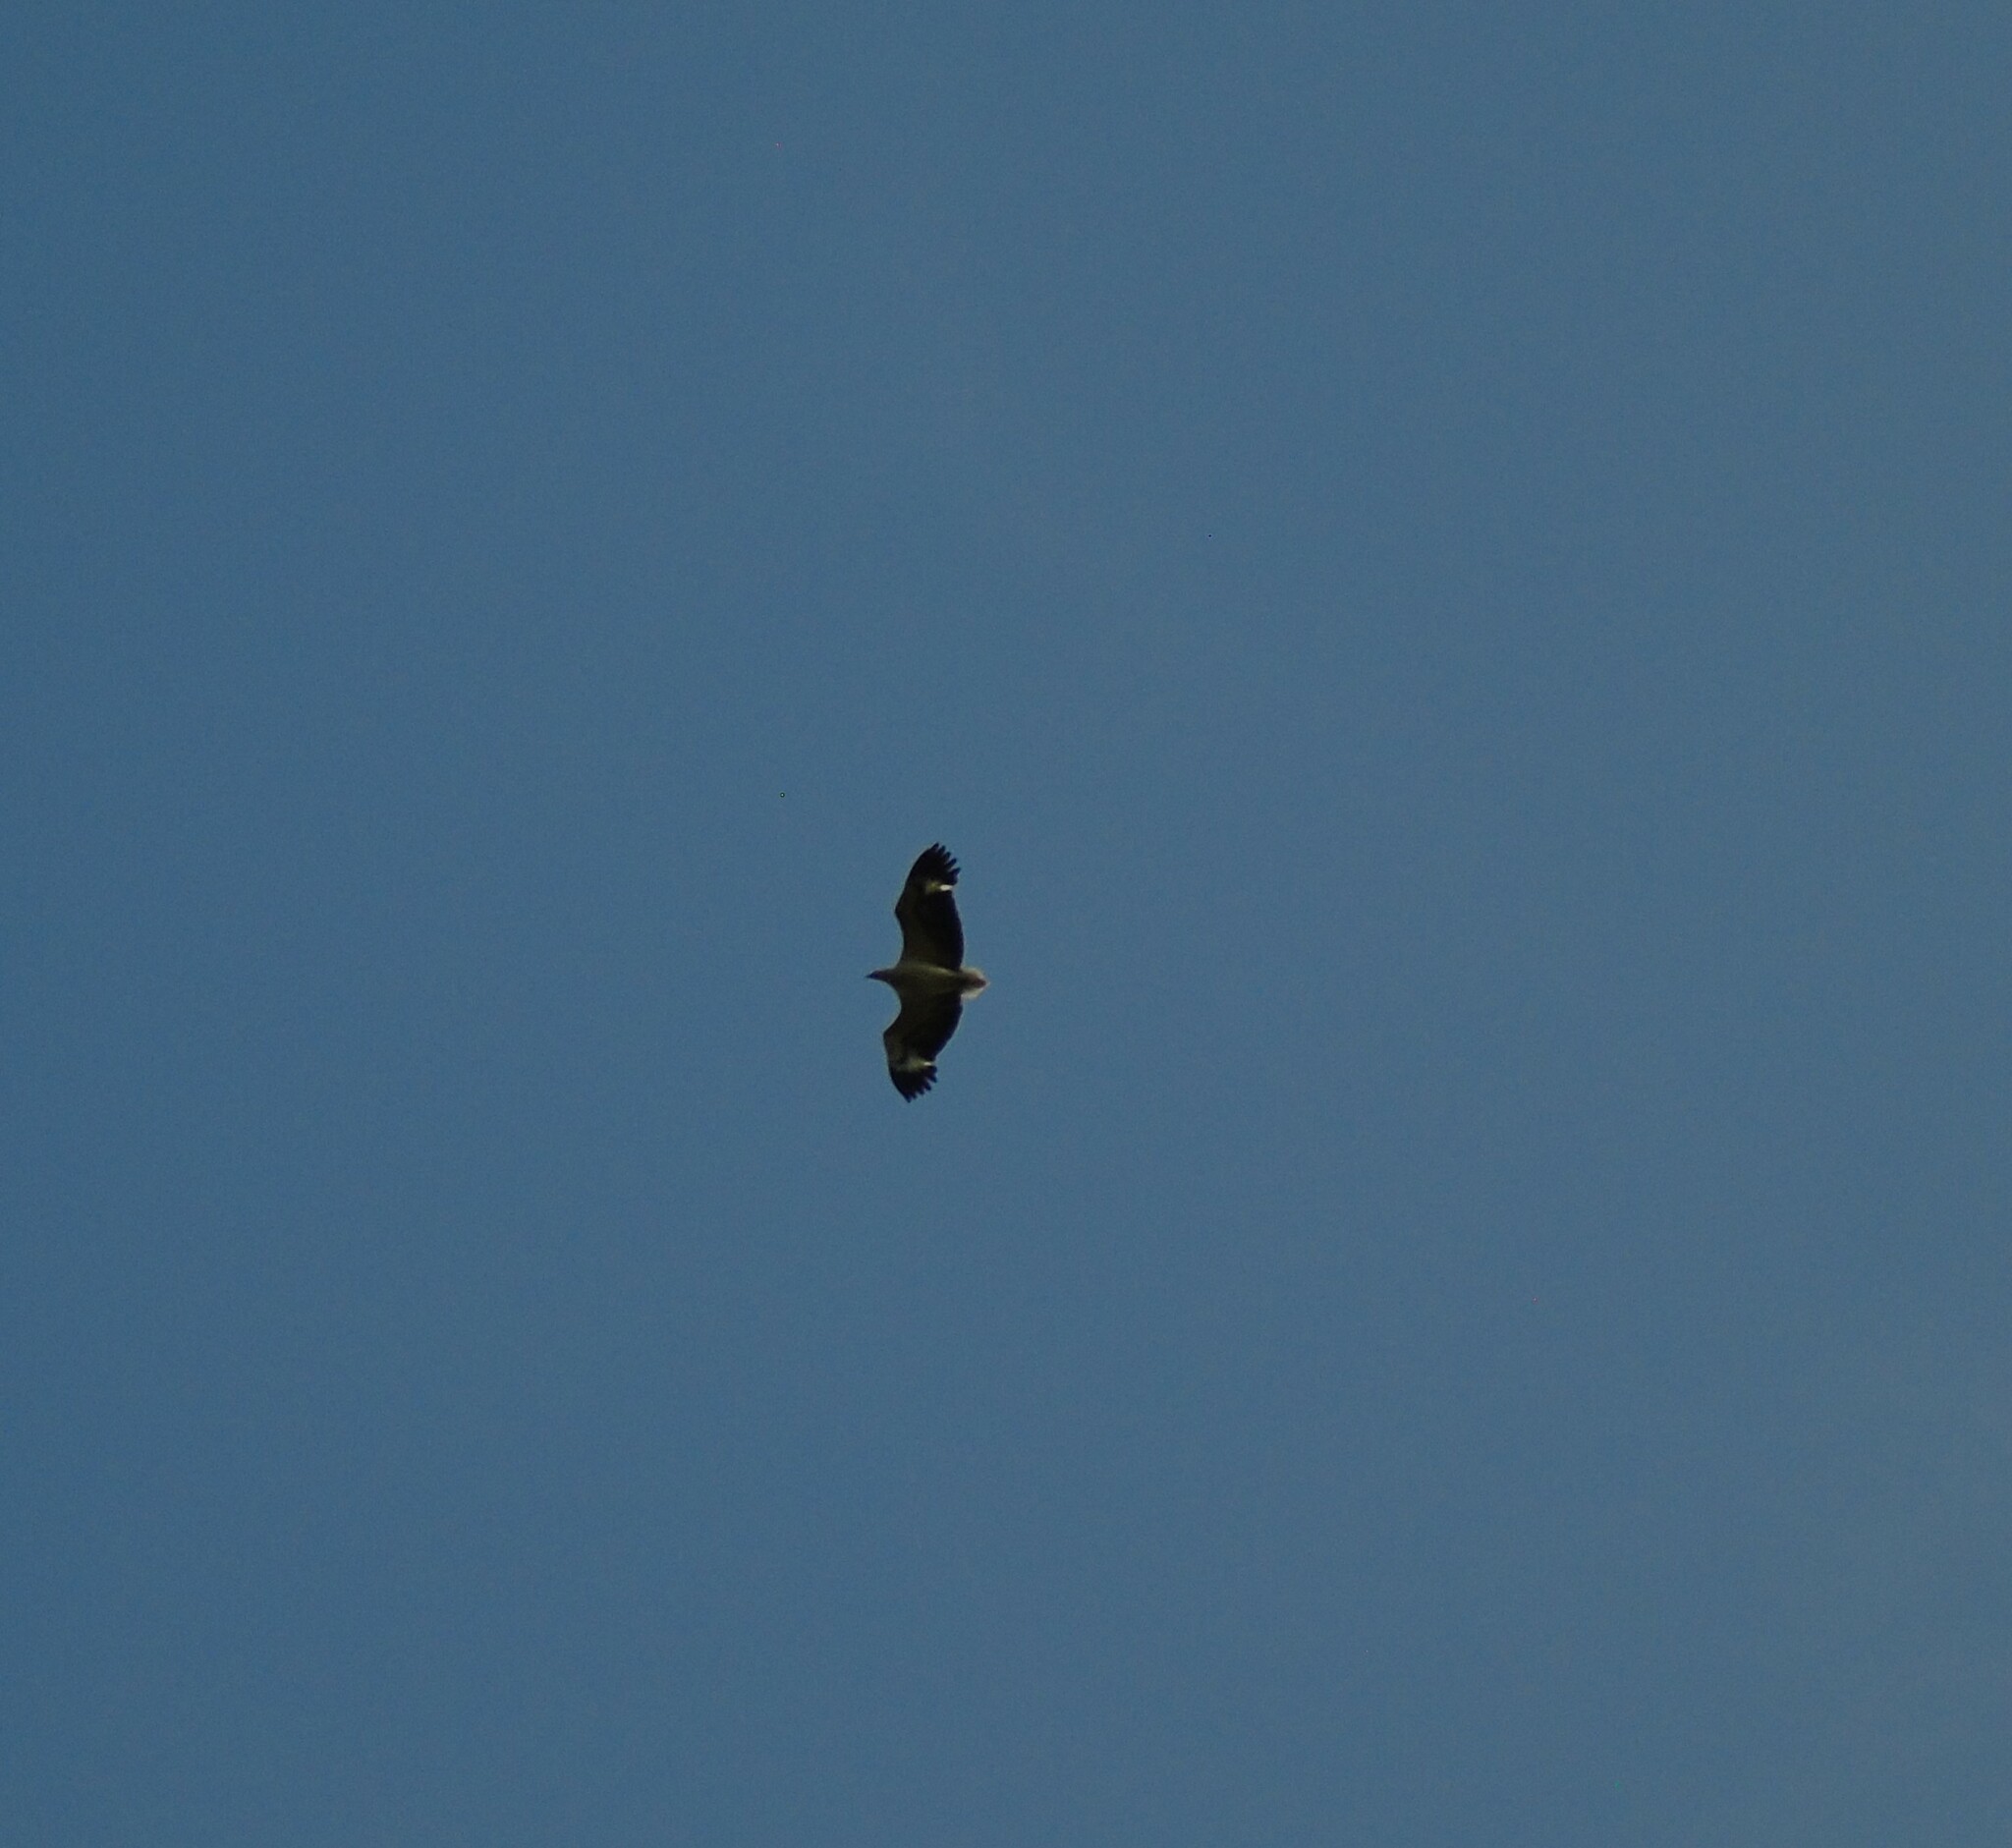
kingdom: Animalia
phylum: Chordata
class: Aves
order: Accipitriformes
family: Accipitridae
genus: Haliaeetus
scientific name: Haliaeetus leucogaster
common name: White-bellied sea eagle
